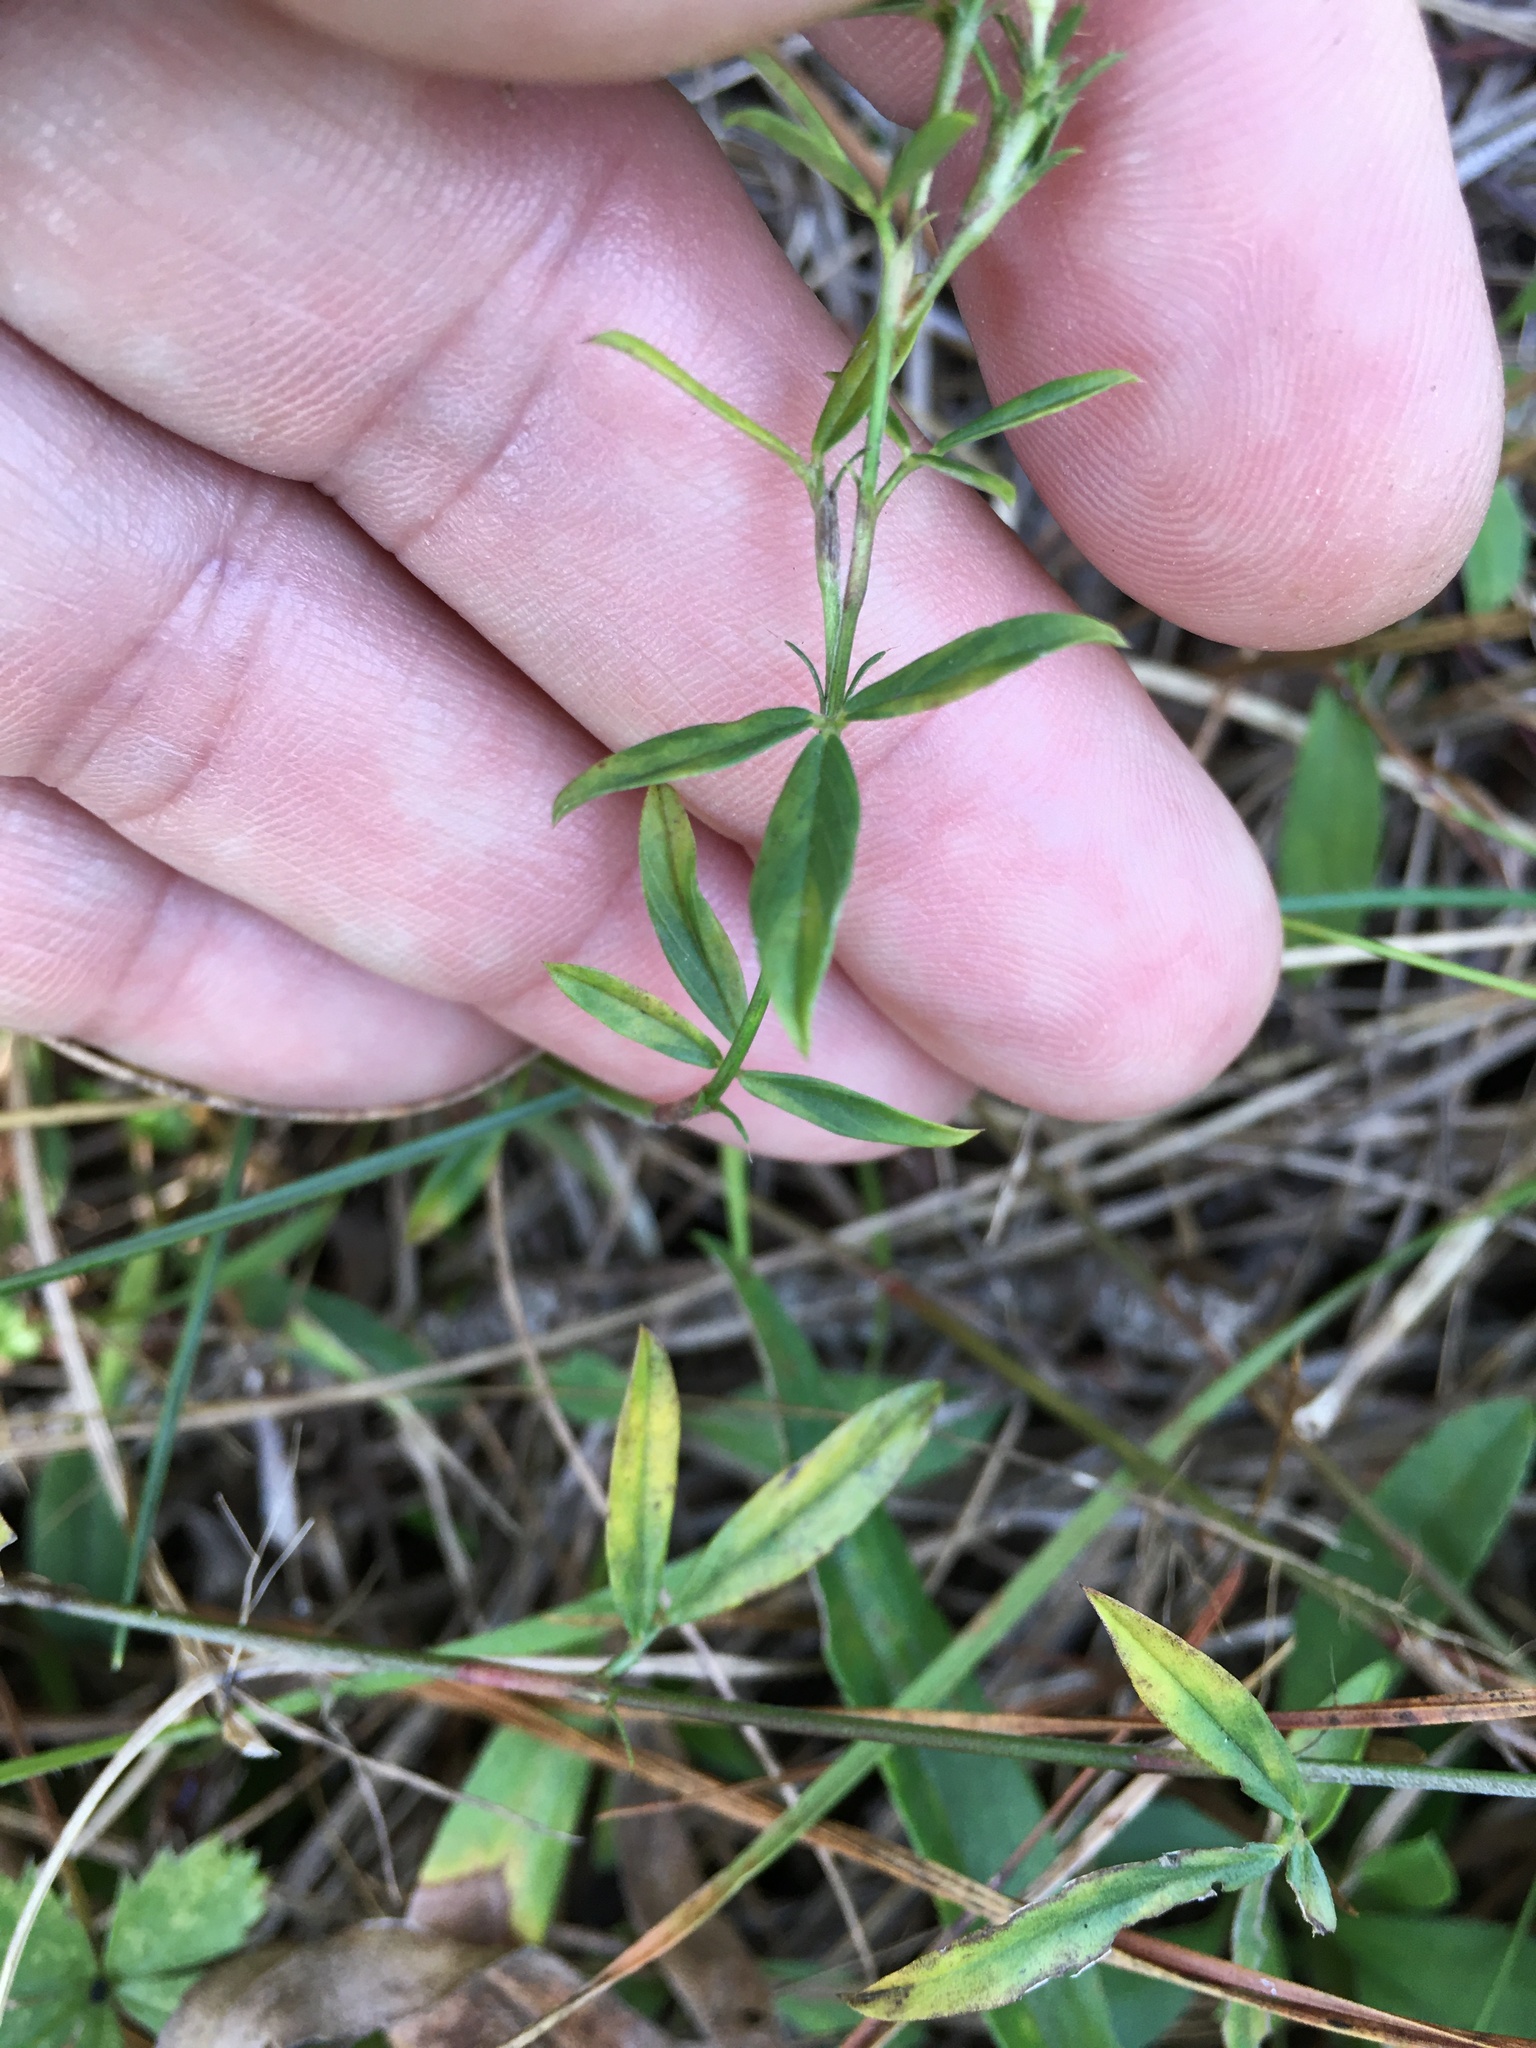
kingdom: Plantae
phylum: Tracheophyta
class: Magnoliopsida
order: Fabales
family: Fabaceae
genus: Stylosanthes
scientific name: Stylosanthes biflora
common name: Two-flower pencil-flower
